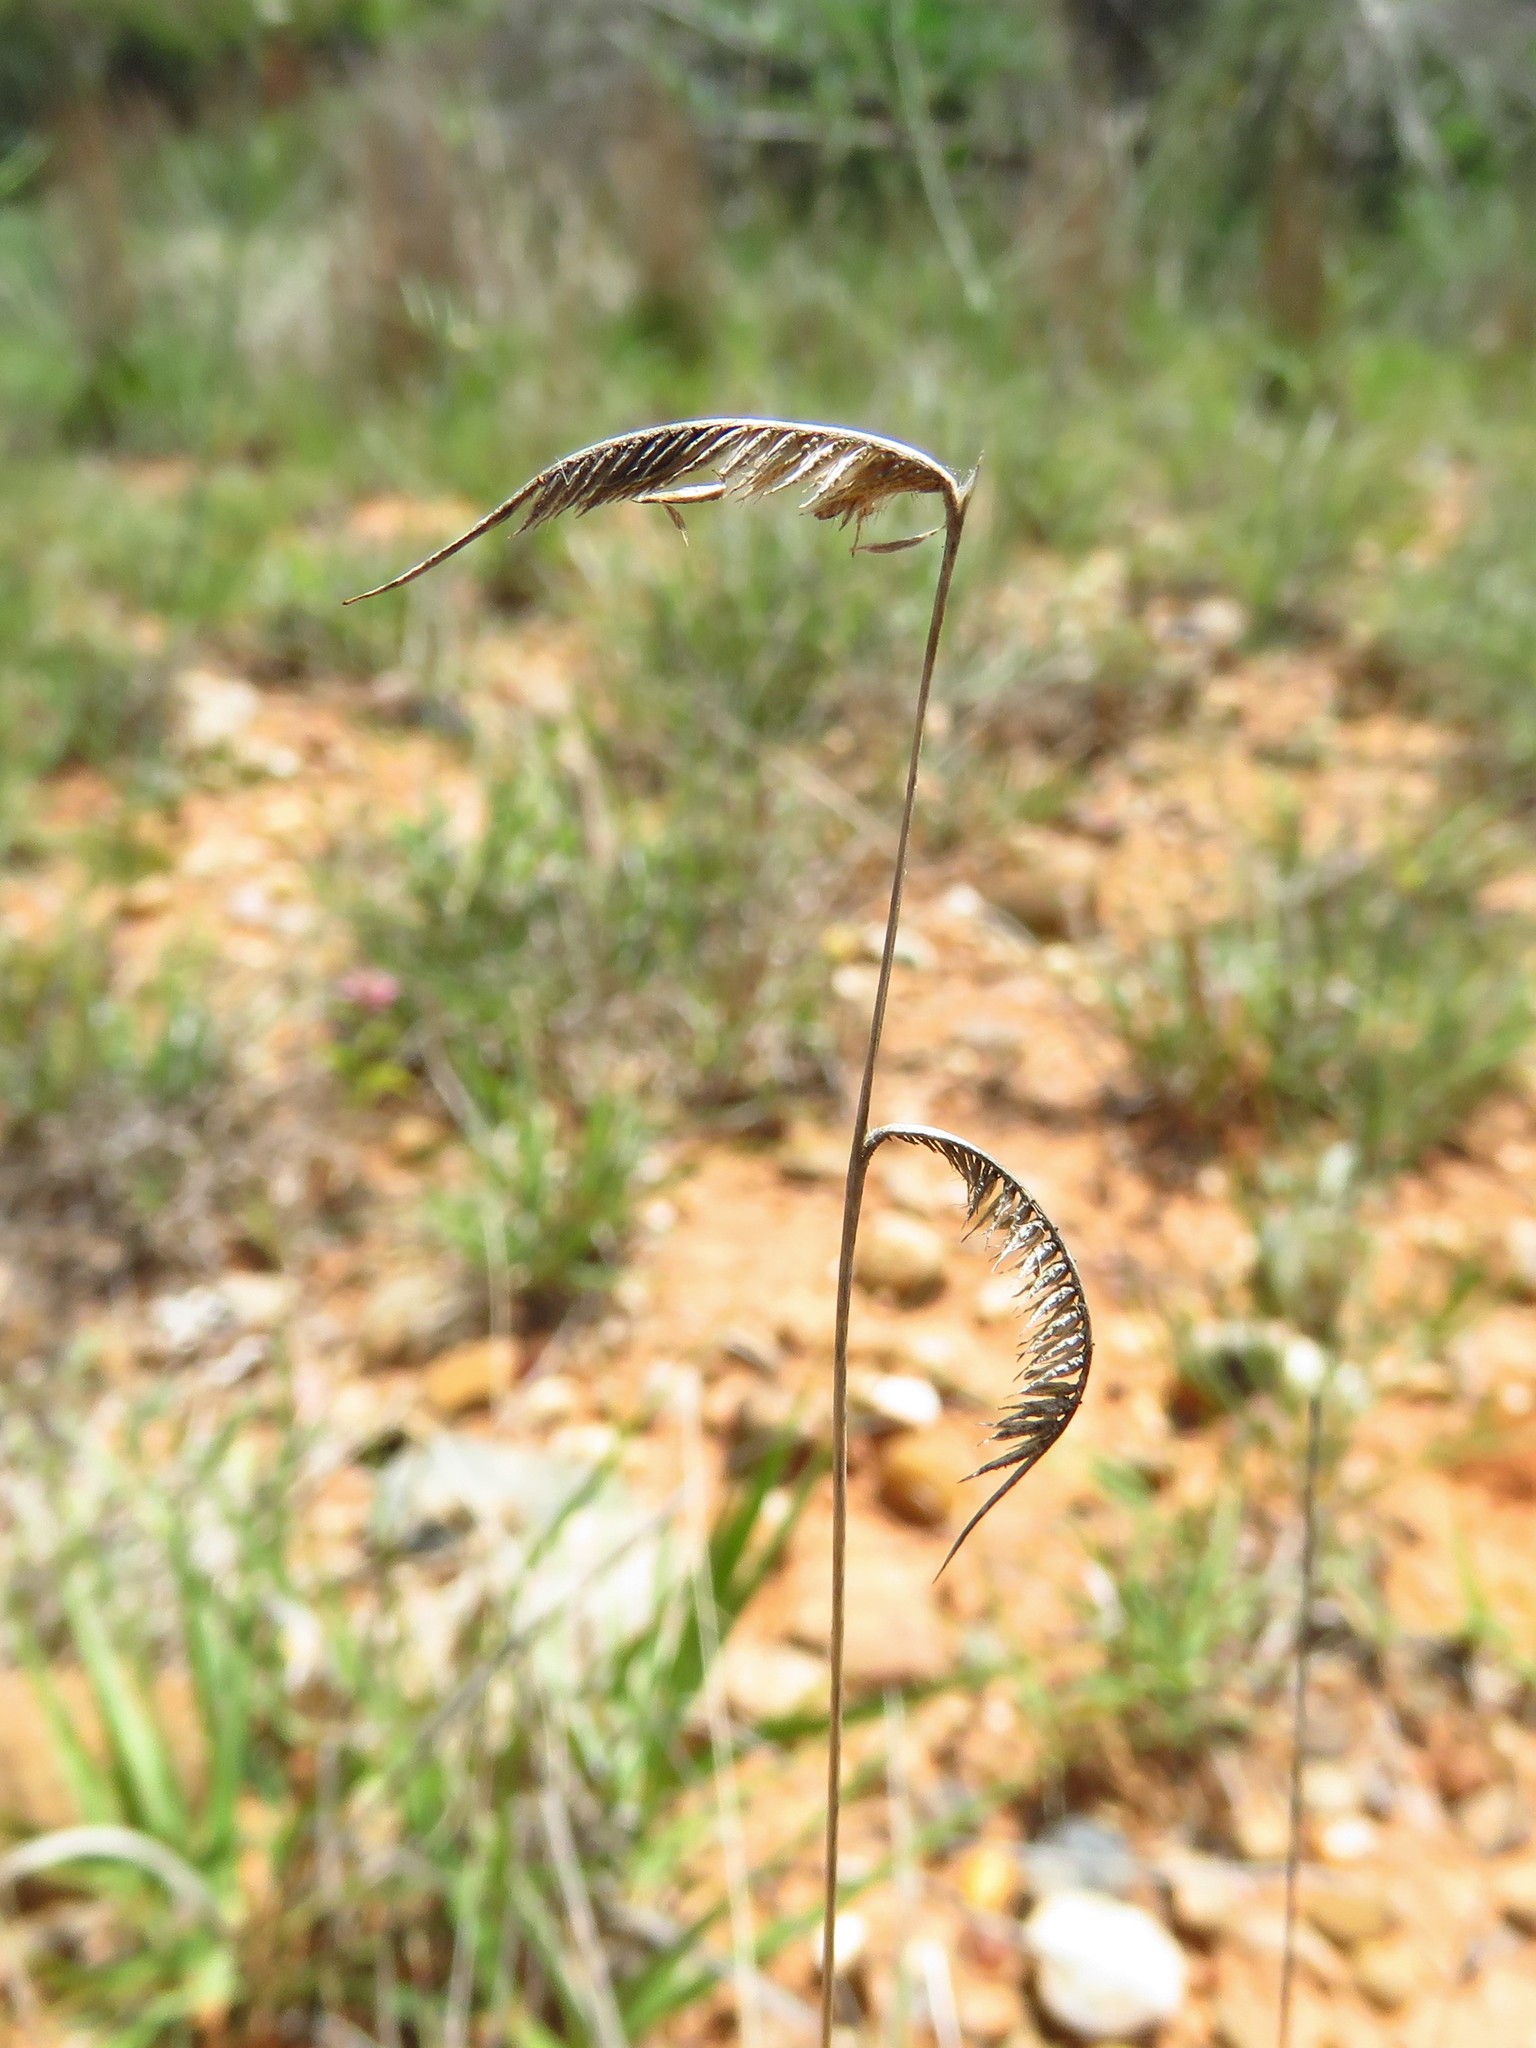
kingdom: Plantae
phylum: Tracheophyta
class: Liliopsida
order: Poales
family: Poaceae
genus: Bouteloua
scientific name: Bouteloua hirsuta
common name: Hairy grama
